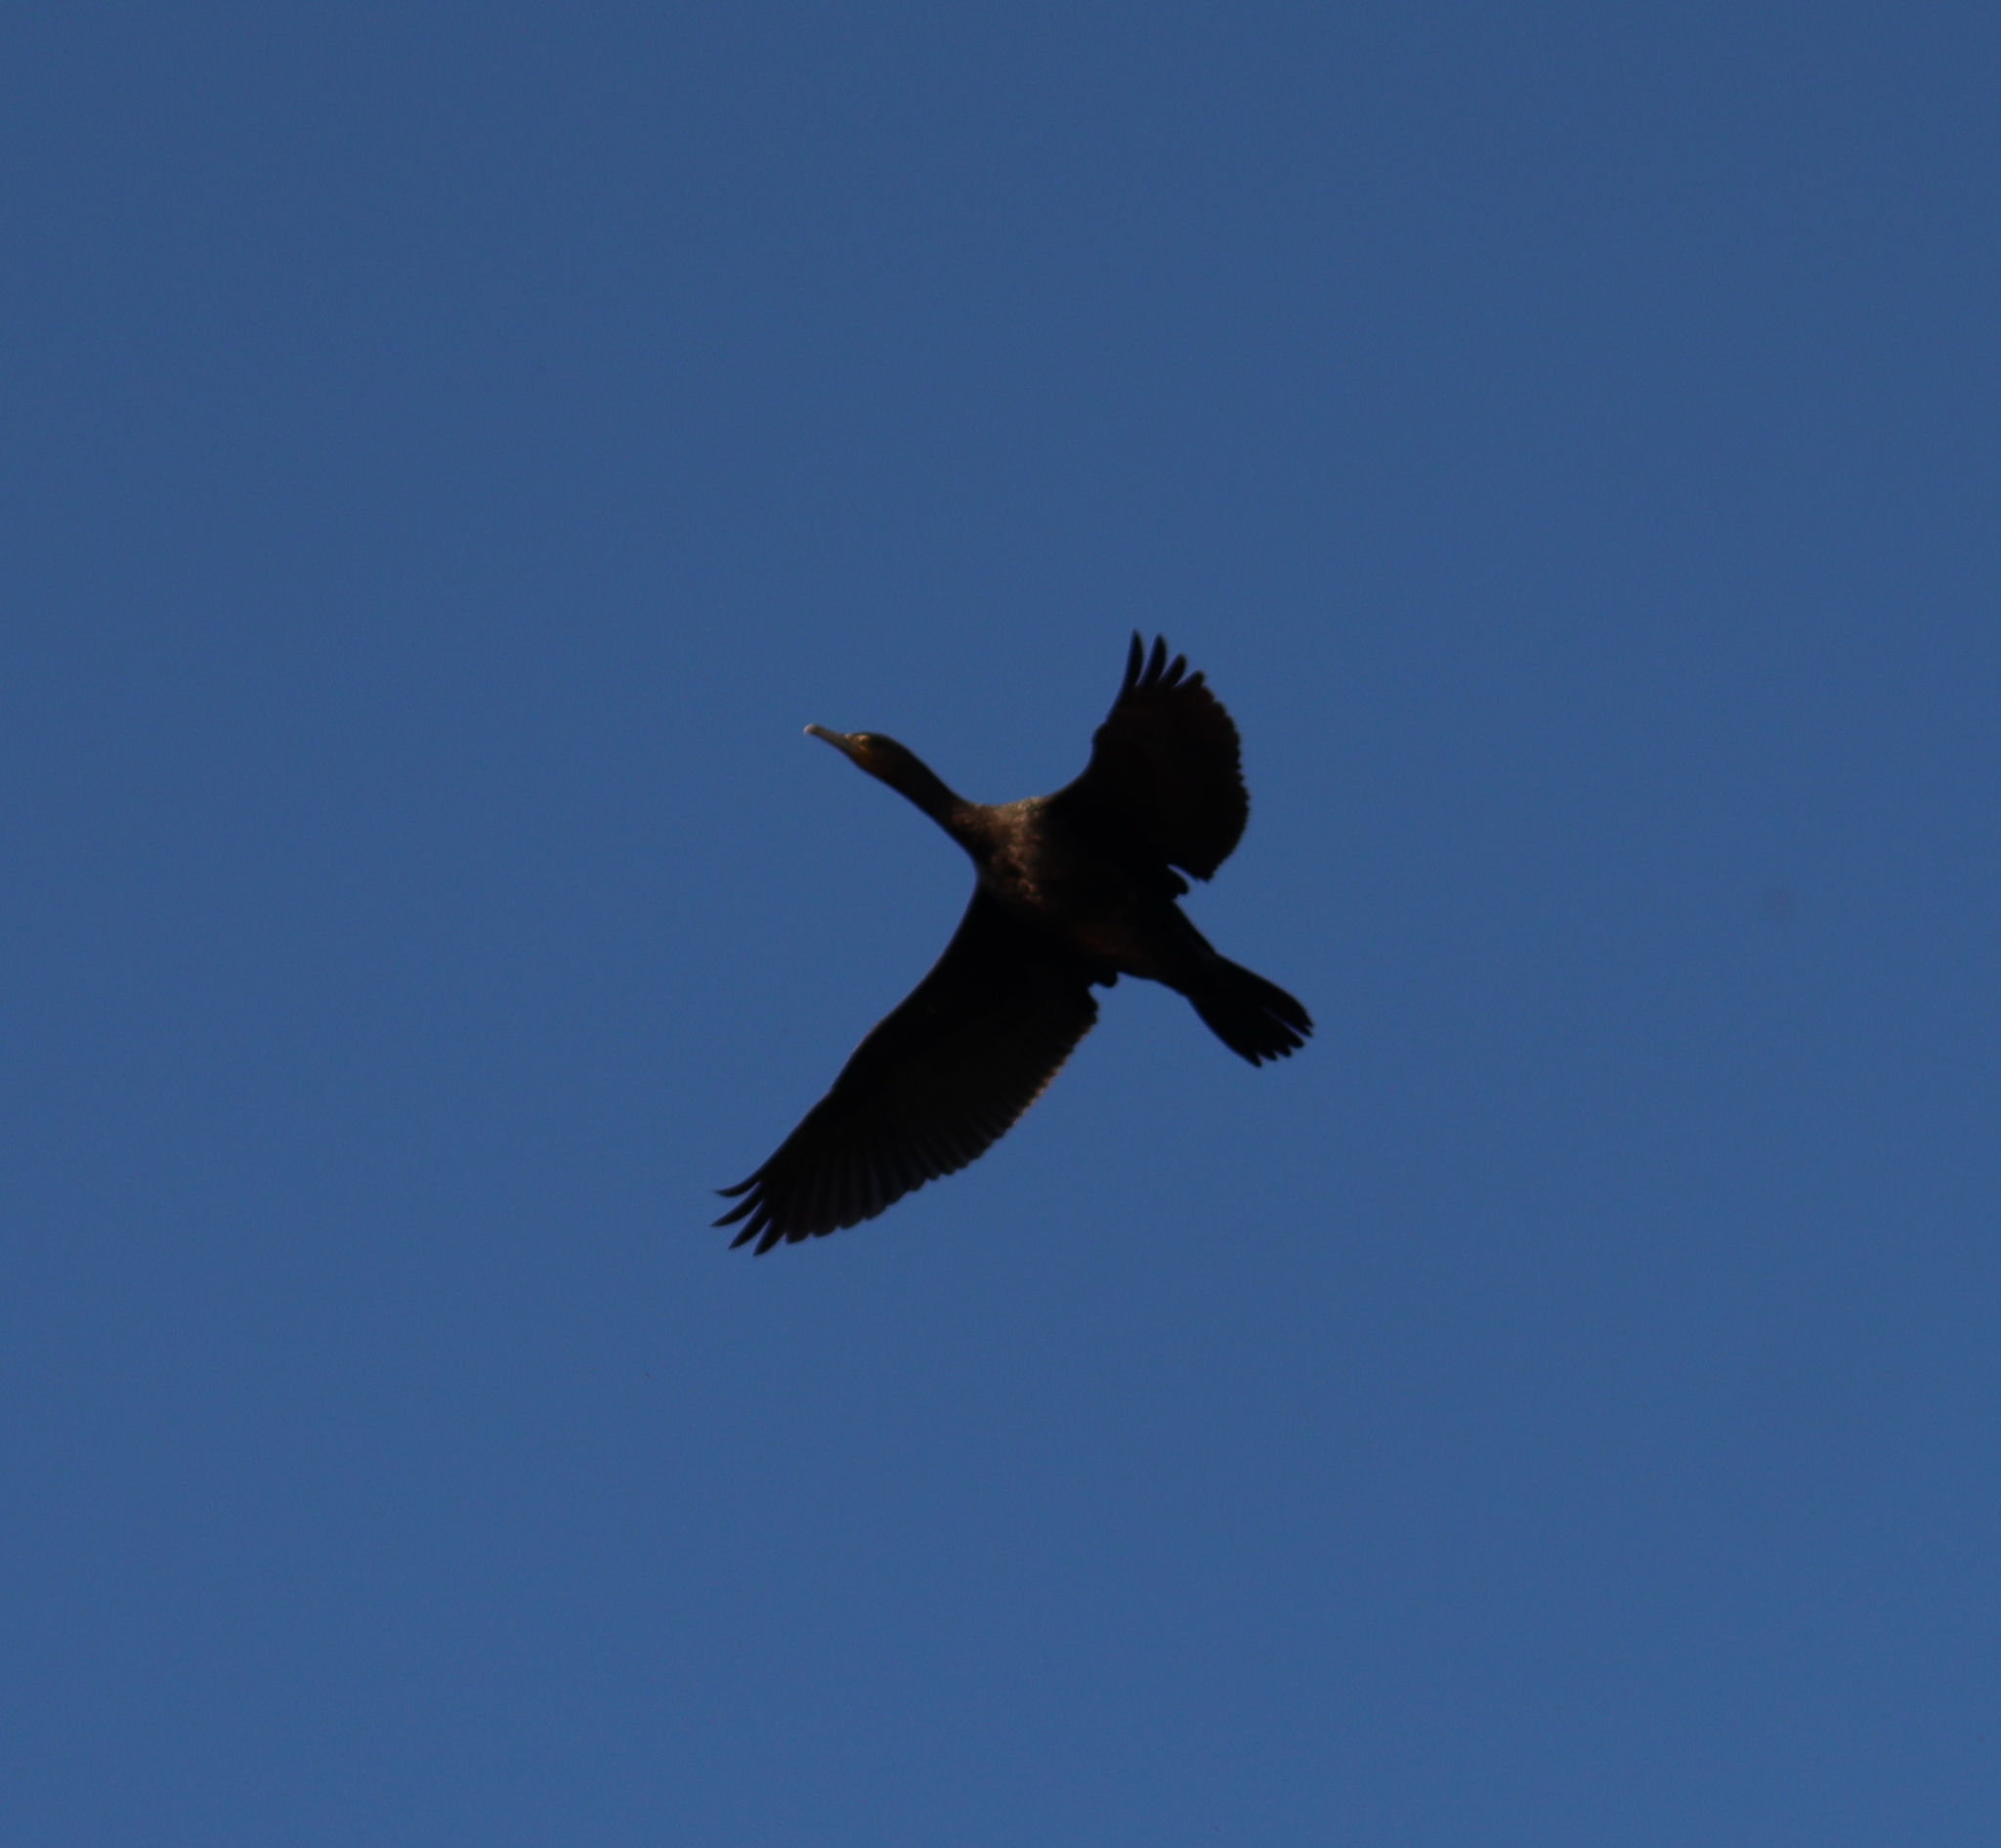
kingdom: Animalia
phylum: Chordata
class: Aves
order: Suliformes
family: Phalacrocoracidae
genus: Phalacrocorax
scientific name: Phalacrocorax carbo
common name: Great cormorant
